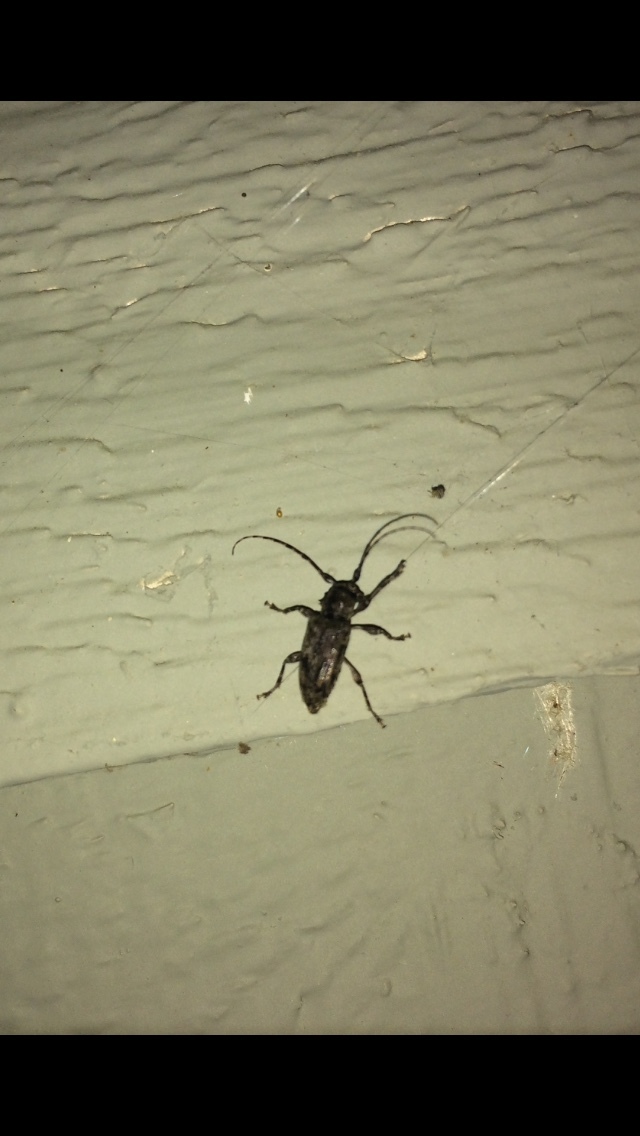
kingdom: Animalia
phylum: Arthropoda
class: Insecta
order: Coleoptera
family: Cerambycidae
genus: Aegomorphus
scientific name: Aegomorphus modestus
